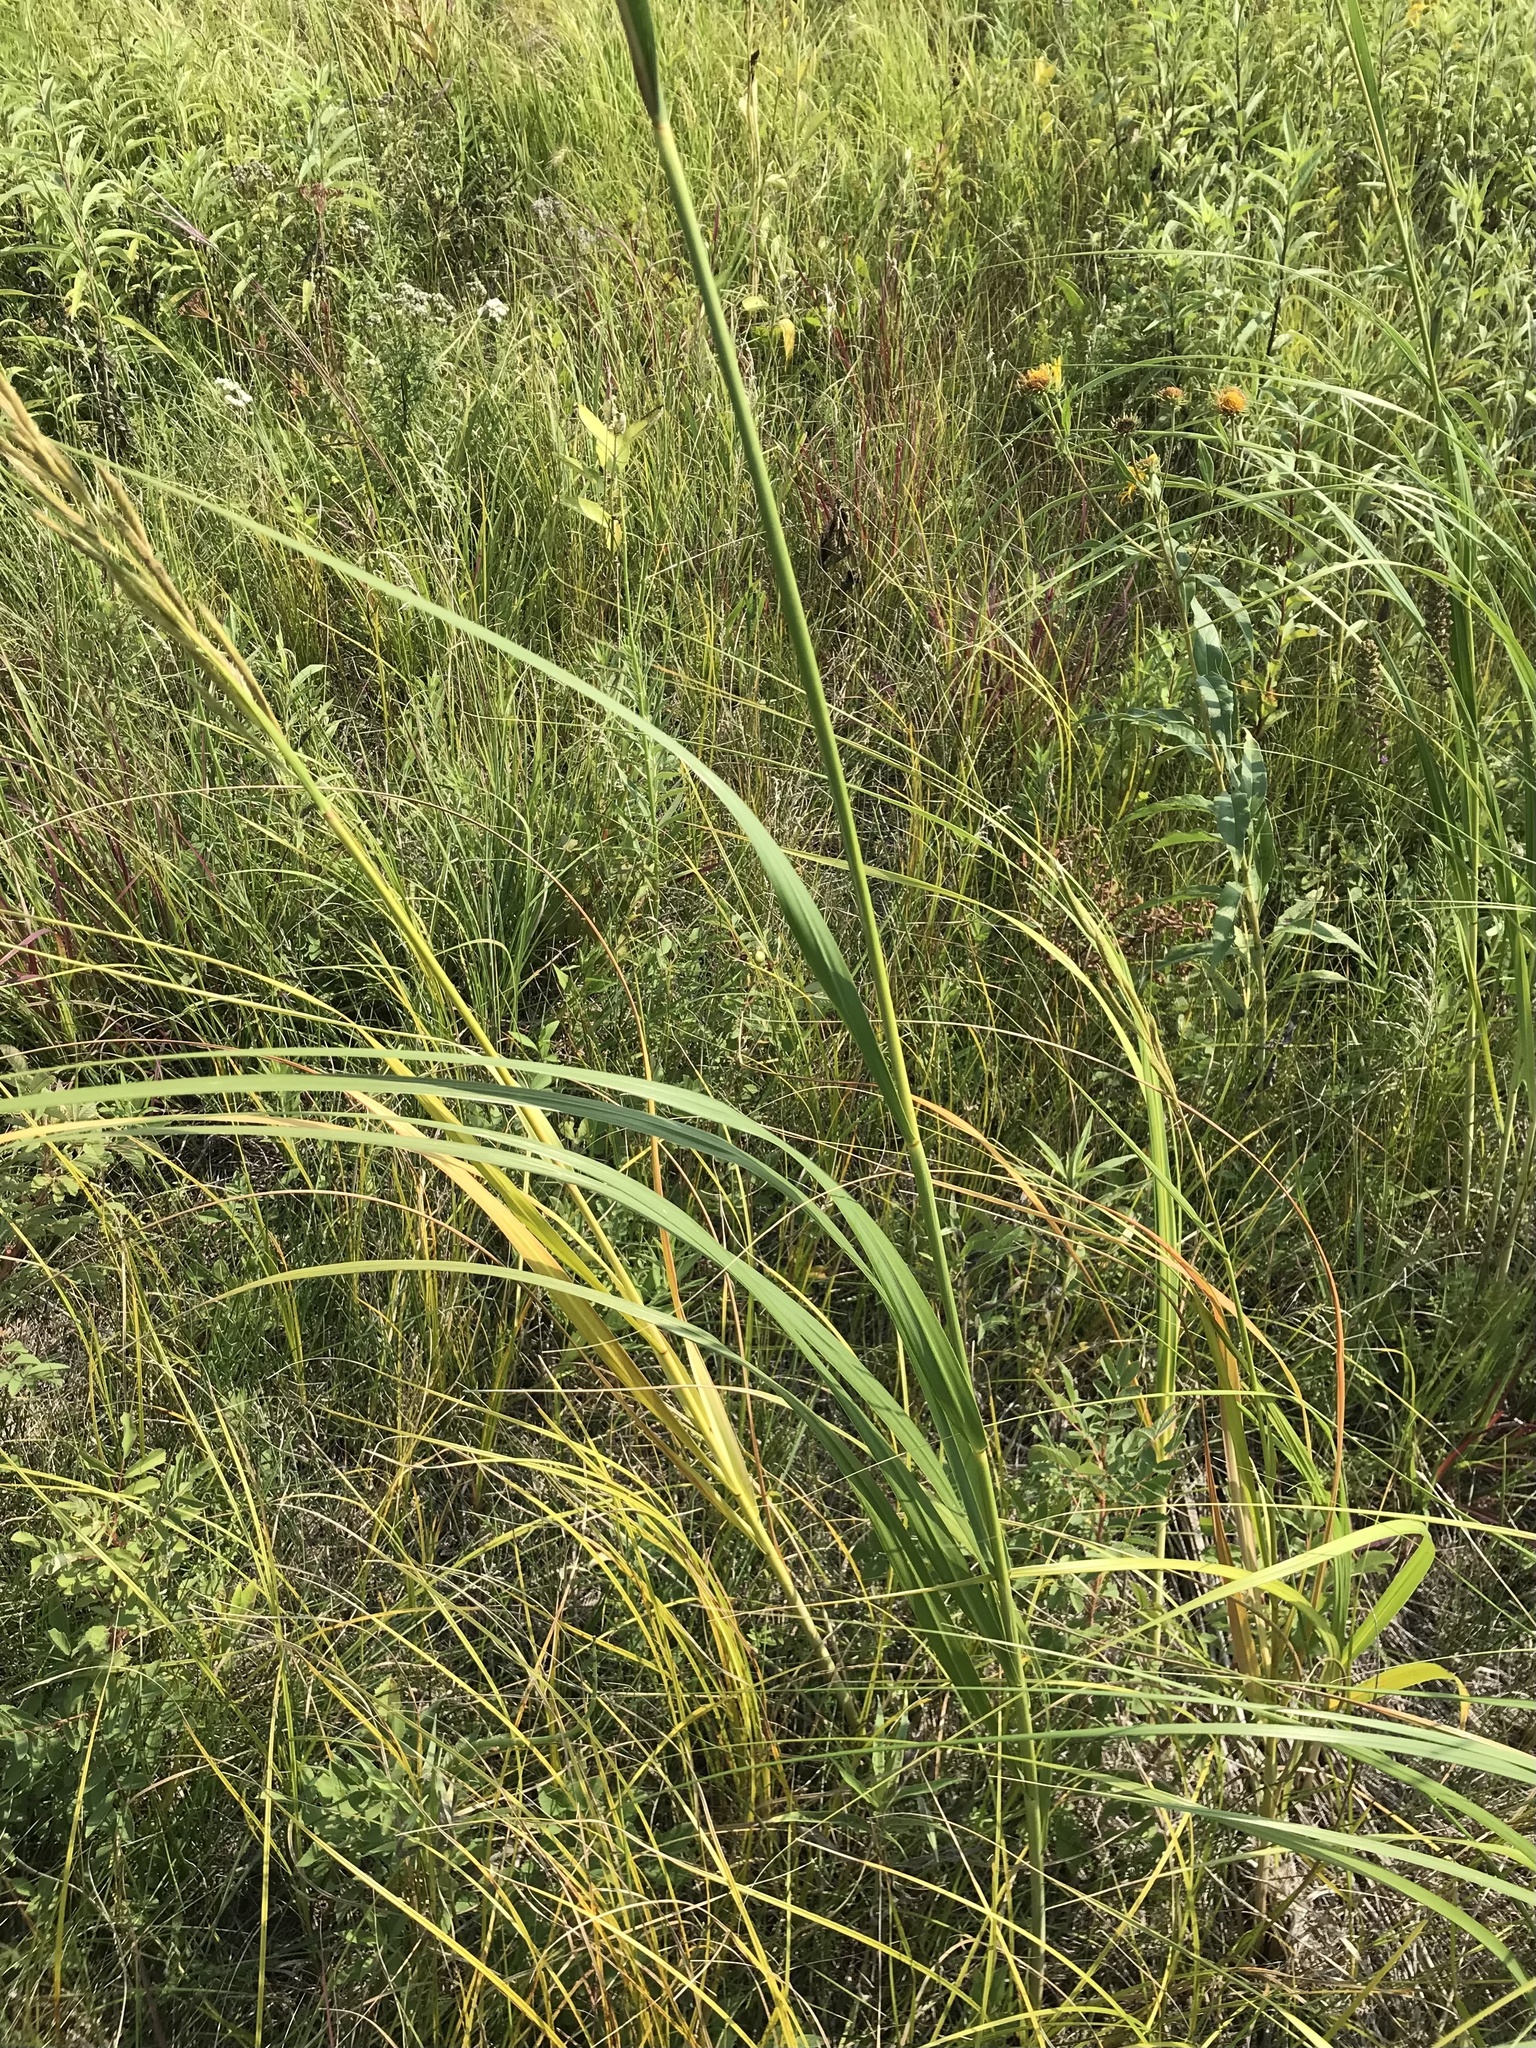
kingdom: Plantae
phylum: Tracheophyta
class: Liliopsida
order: Poales
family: Poaceae
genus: Sporobolus
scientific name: Sporobolus michauxianus
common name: Freshwater cordgrass
